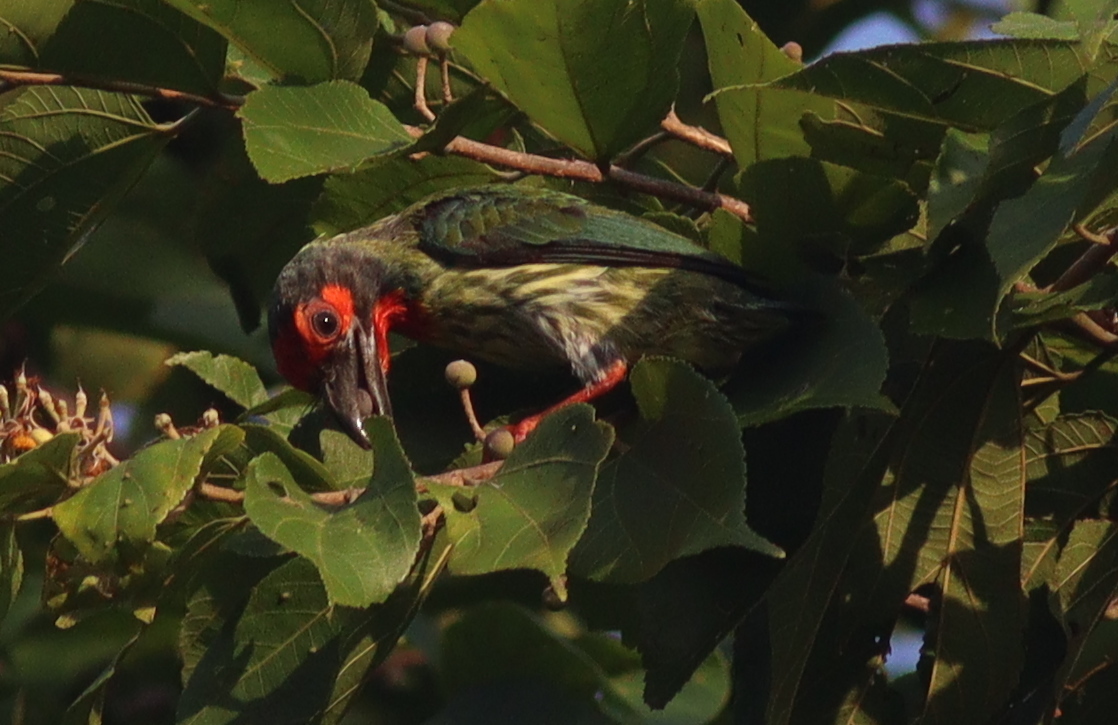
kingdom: Animalia
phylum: Chordata
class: Aves
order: Piciformes
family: Megalaimidae
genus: Psilopogon
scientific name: Psilopogon haemacephalus
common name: Coppersmith barbet
